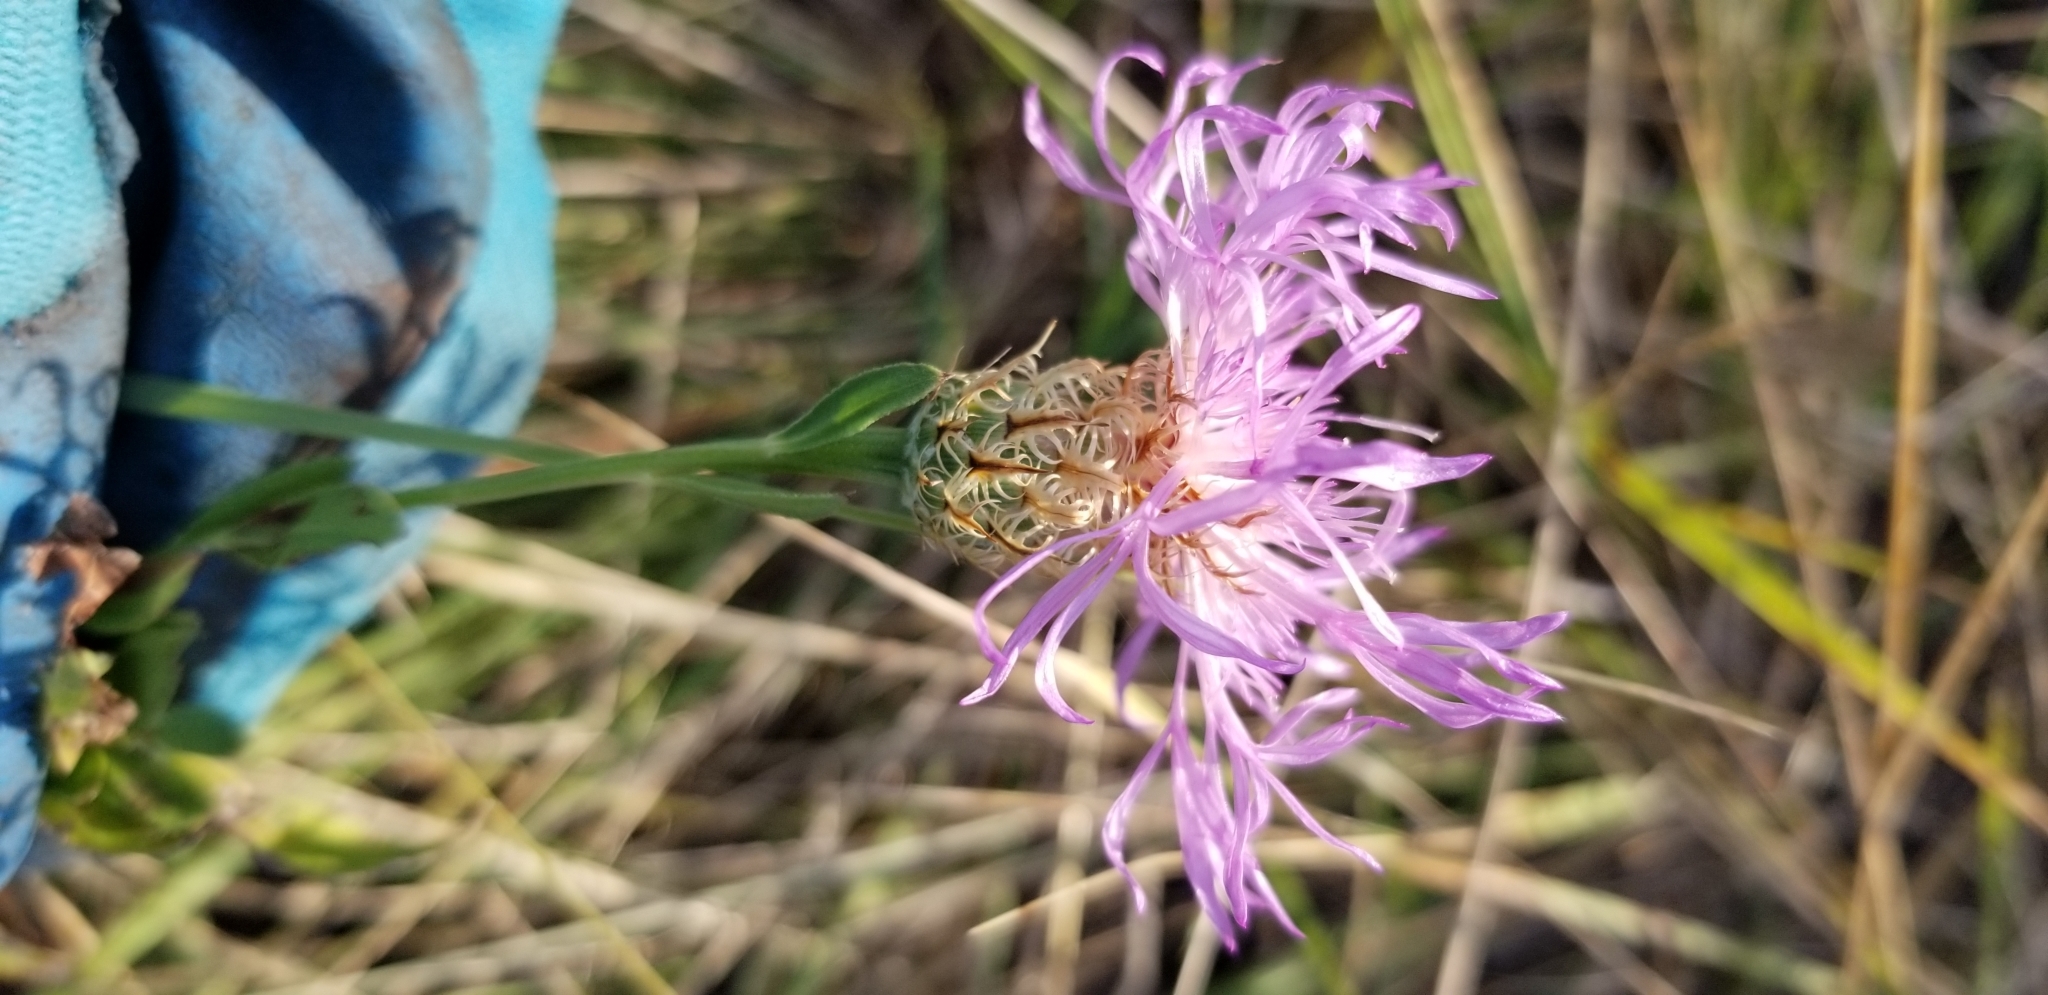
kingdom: Plantae
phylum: Tracheophyta
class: Magnoliopsida
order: Asterales
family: Asteraceae
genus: Plectocephalus
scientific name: Plectocephalus americanus
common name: American basket-flower
